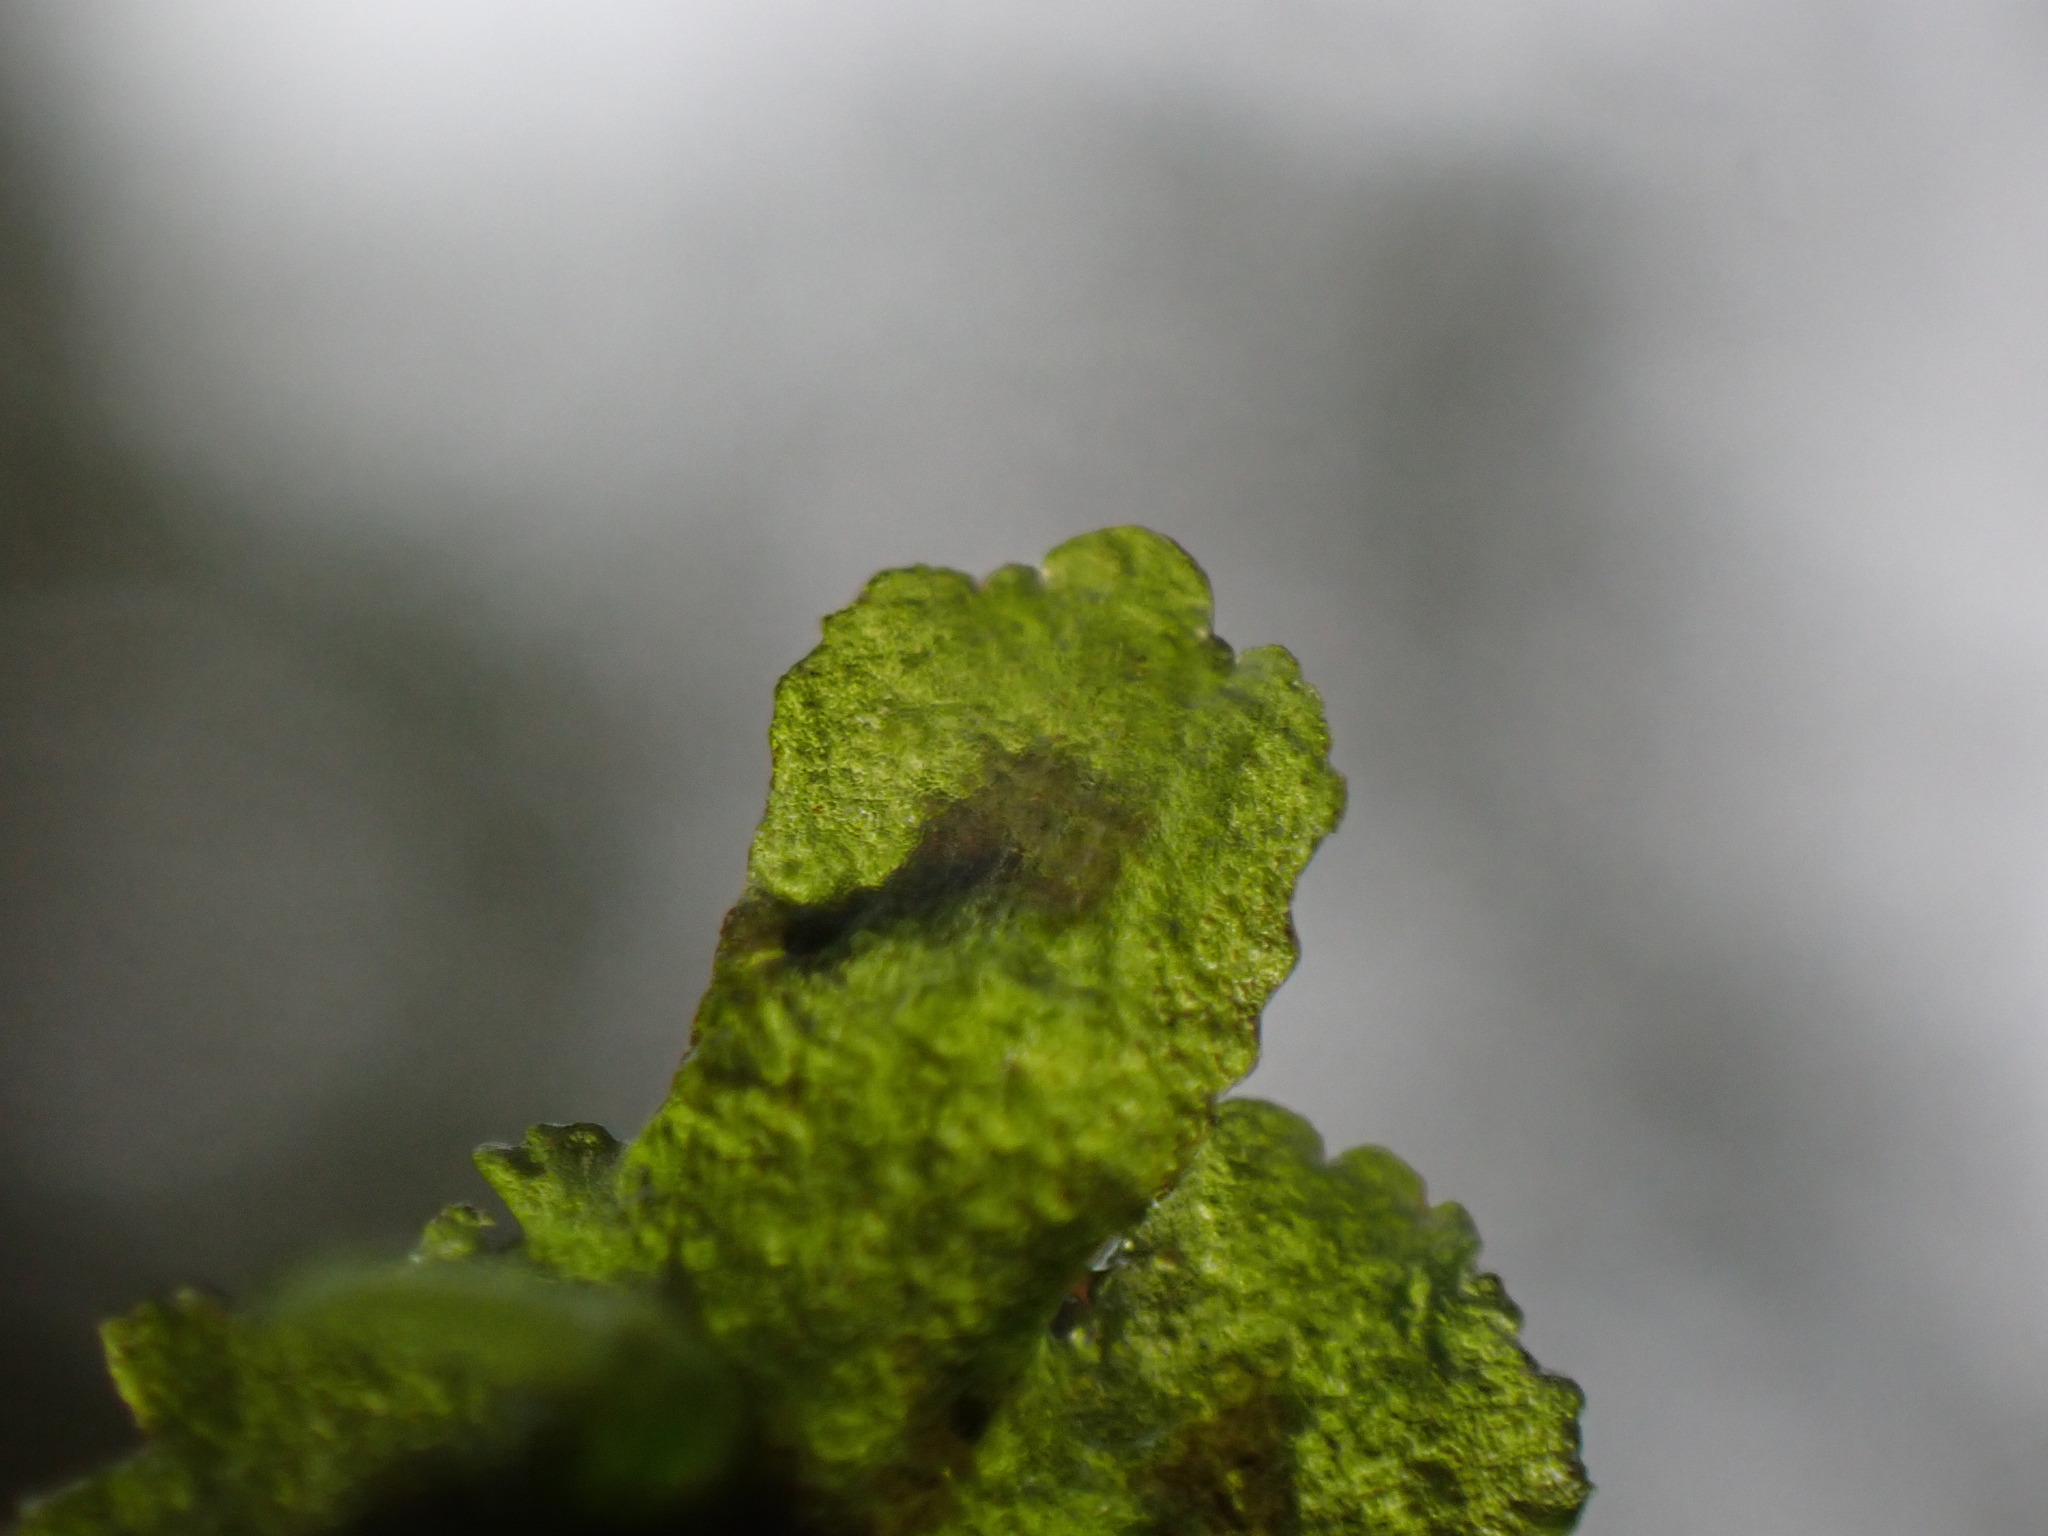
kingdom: Plantae
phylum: Anthocerotophyta
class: Anthocerotopsida
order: Notothyladales
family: Notothyladaceae
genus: Phaeoceros
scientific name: Phaeoceros carolinianus
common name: Carolina hornwort
